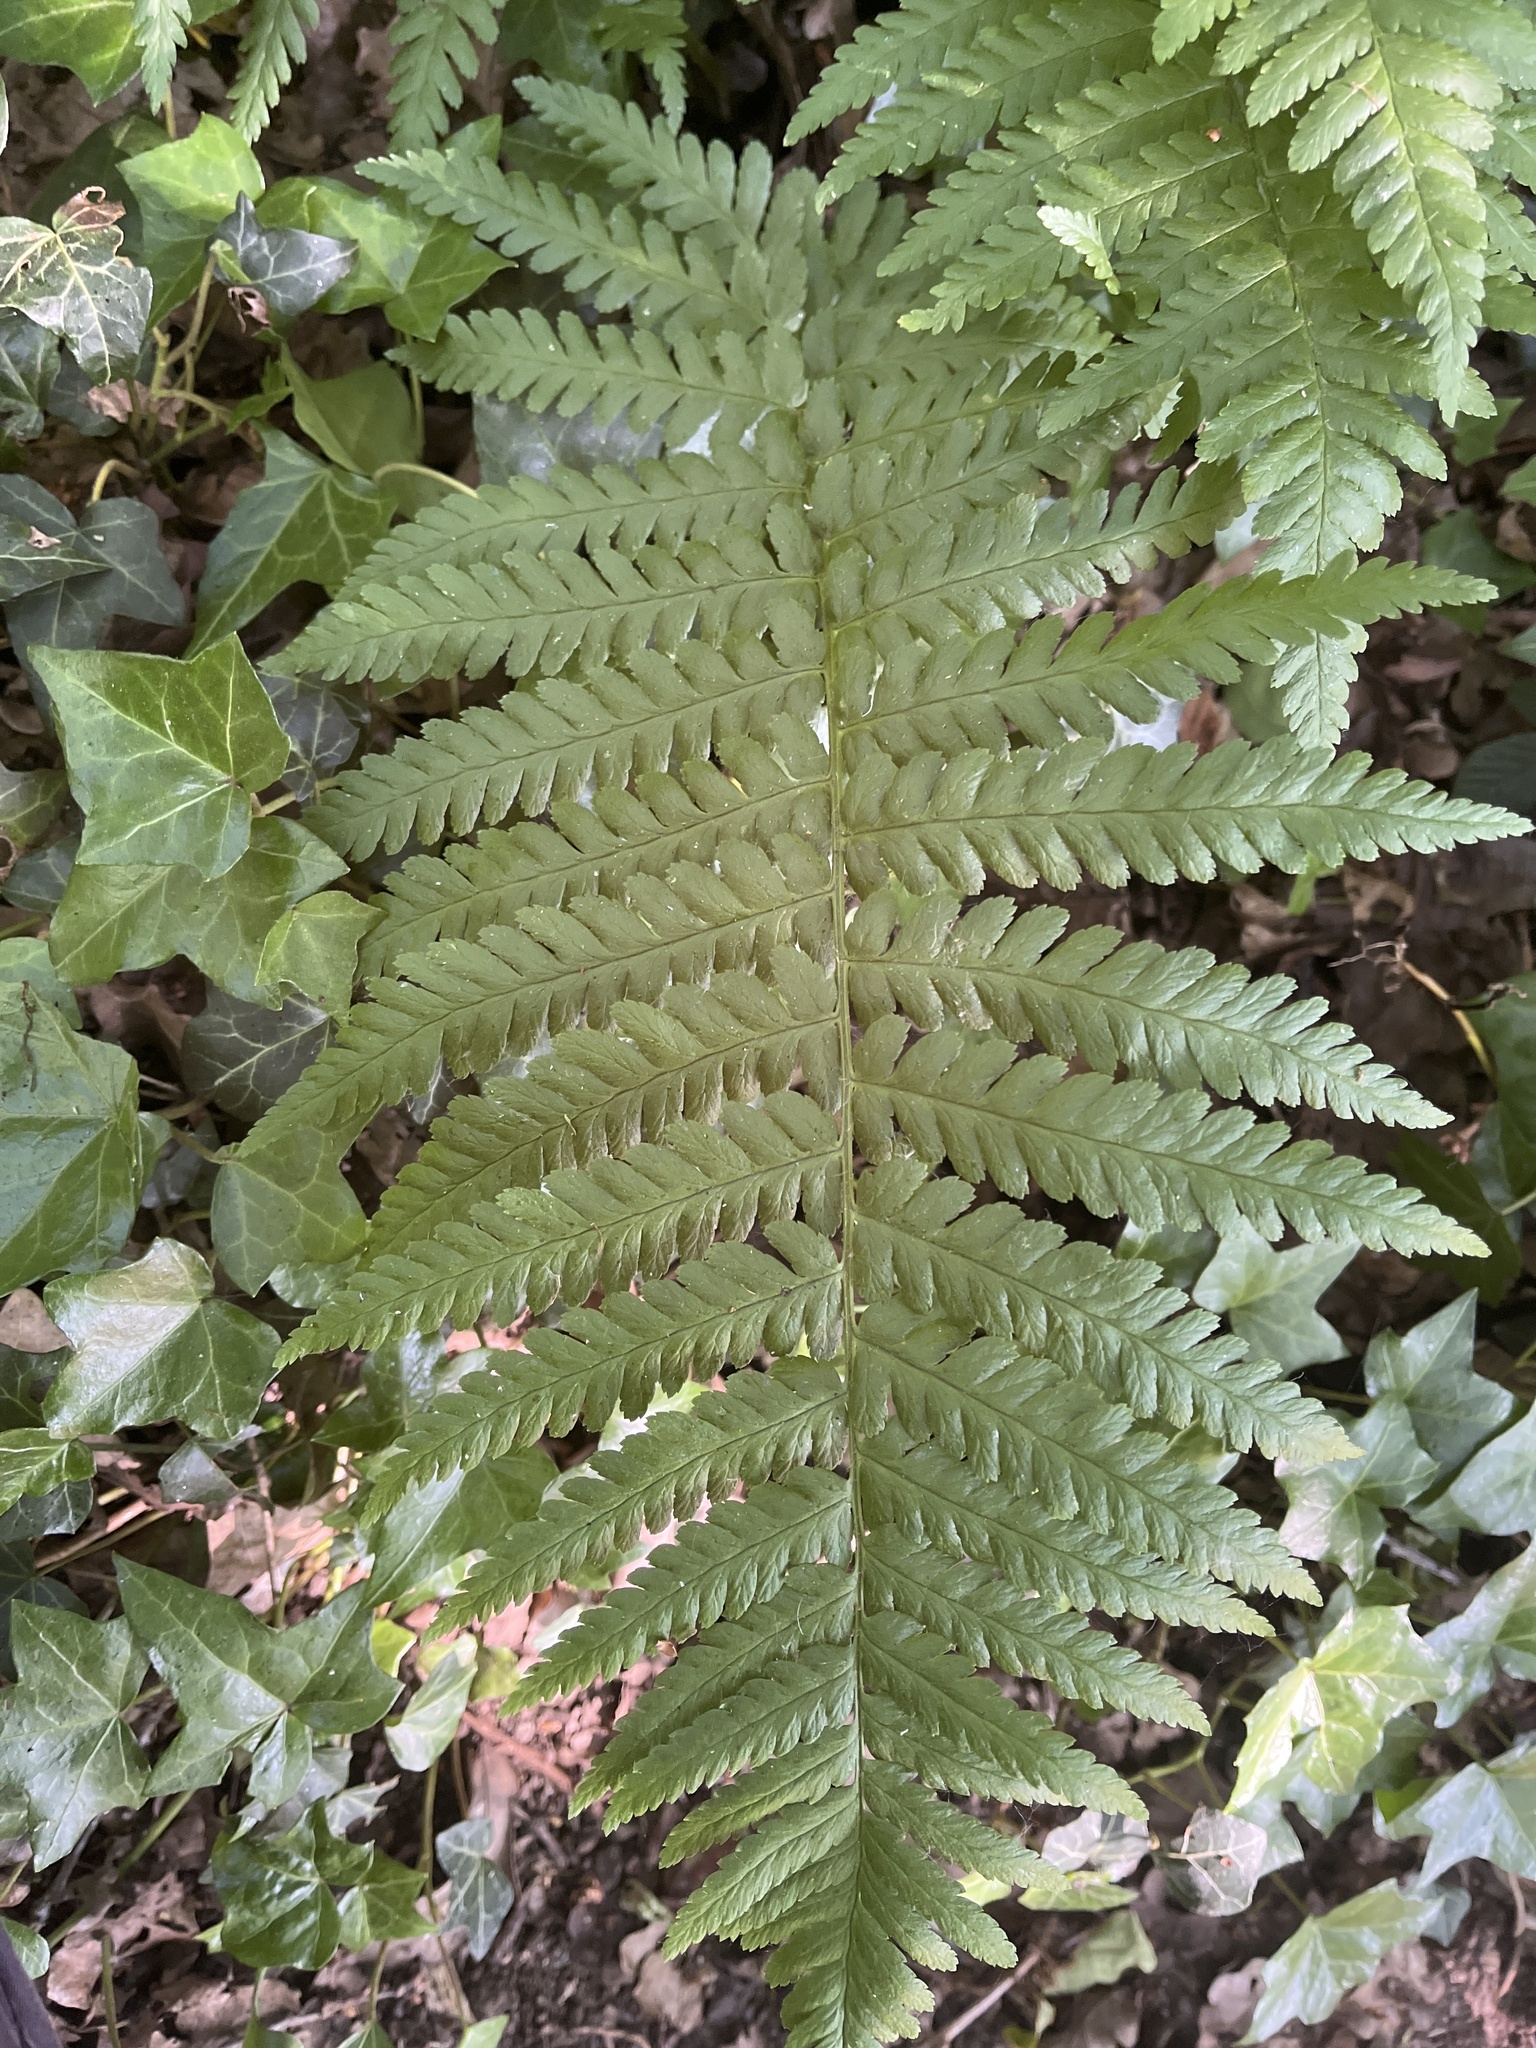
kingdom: Plantae
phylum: Tracheophyta
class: Polypodiopsida
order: Polypodiales
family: Dryopteridaceae
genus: Dryopteris
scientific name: Dryopteris filix-mas
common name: Male fern
